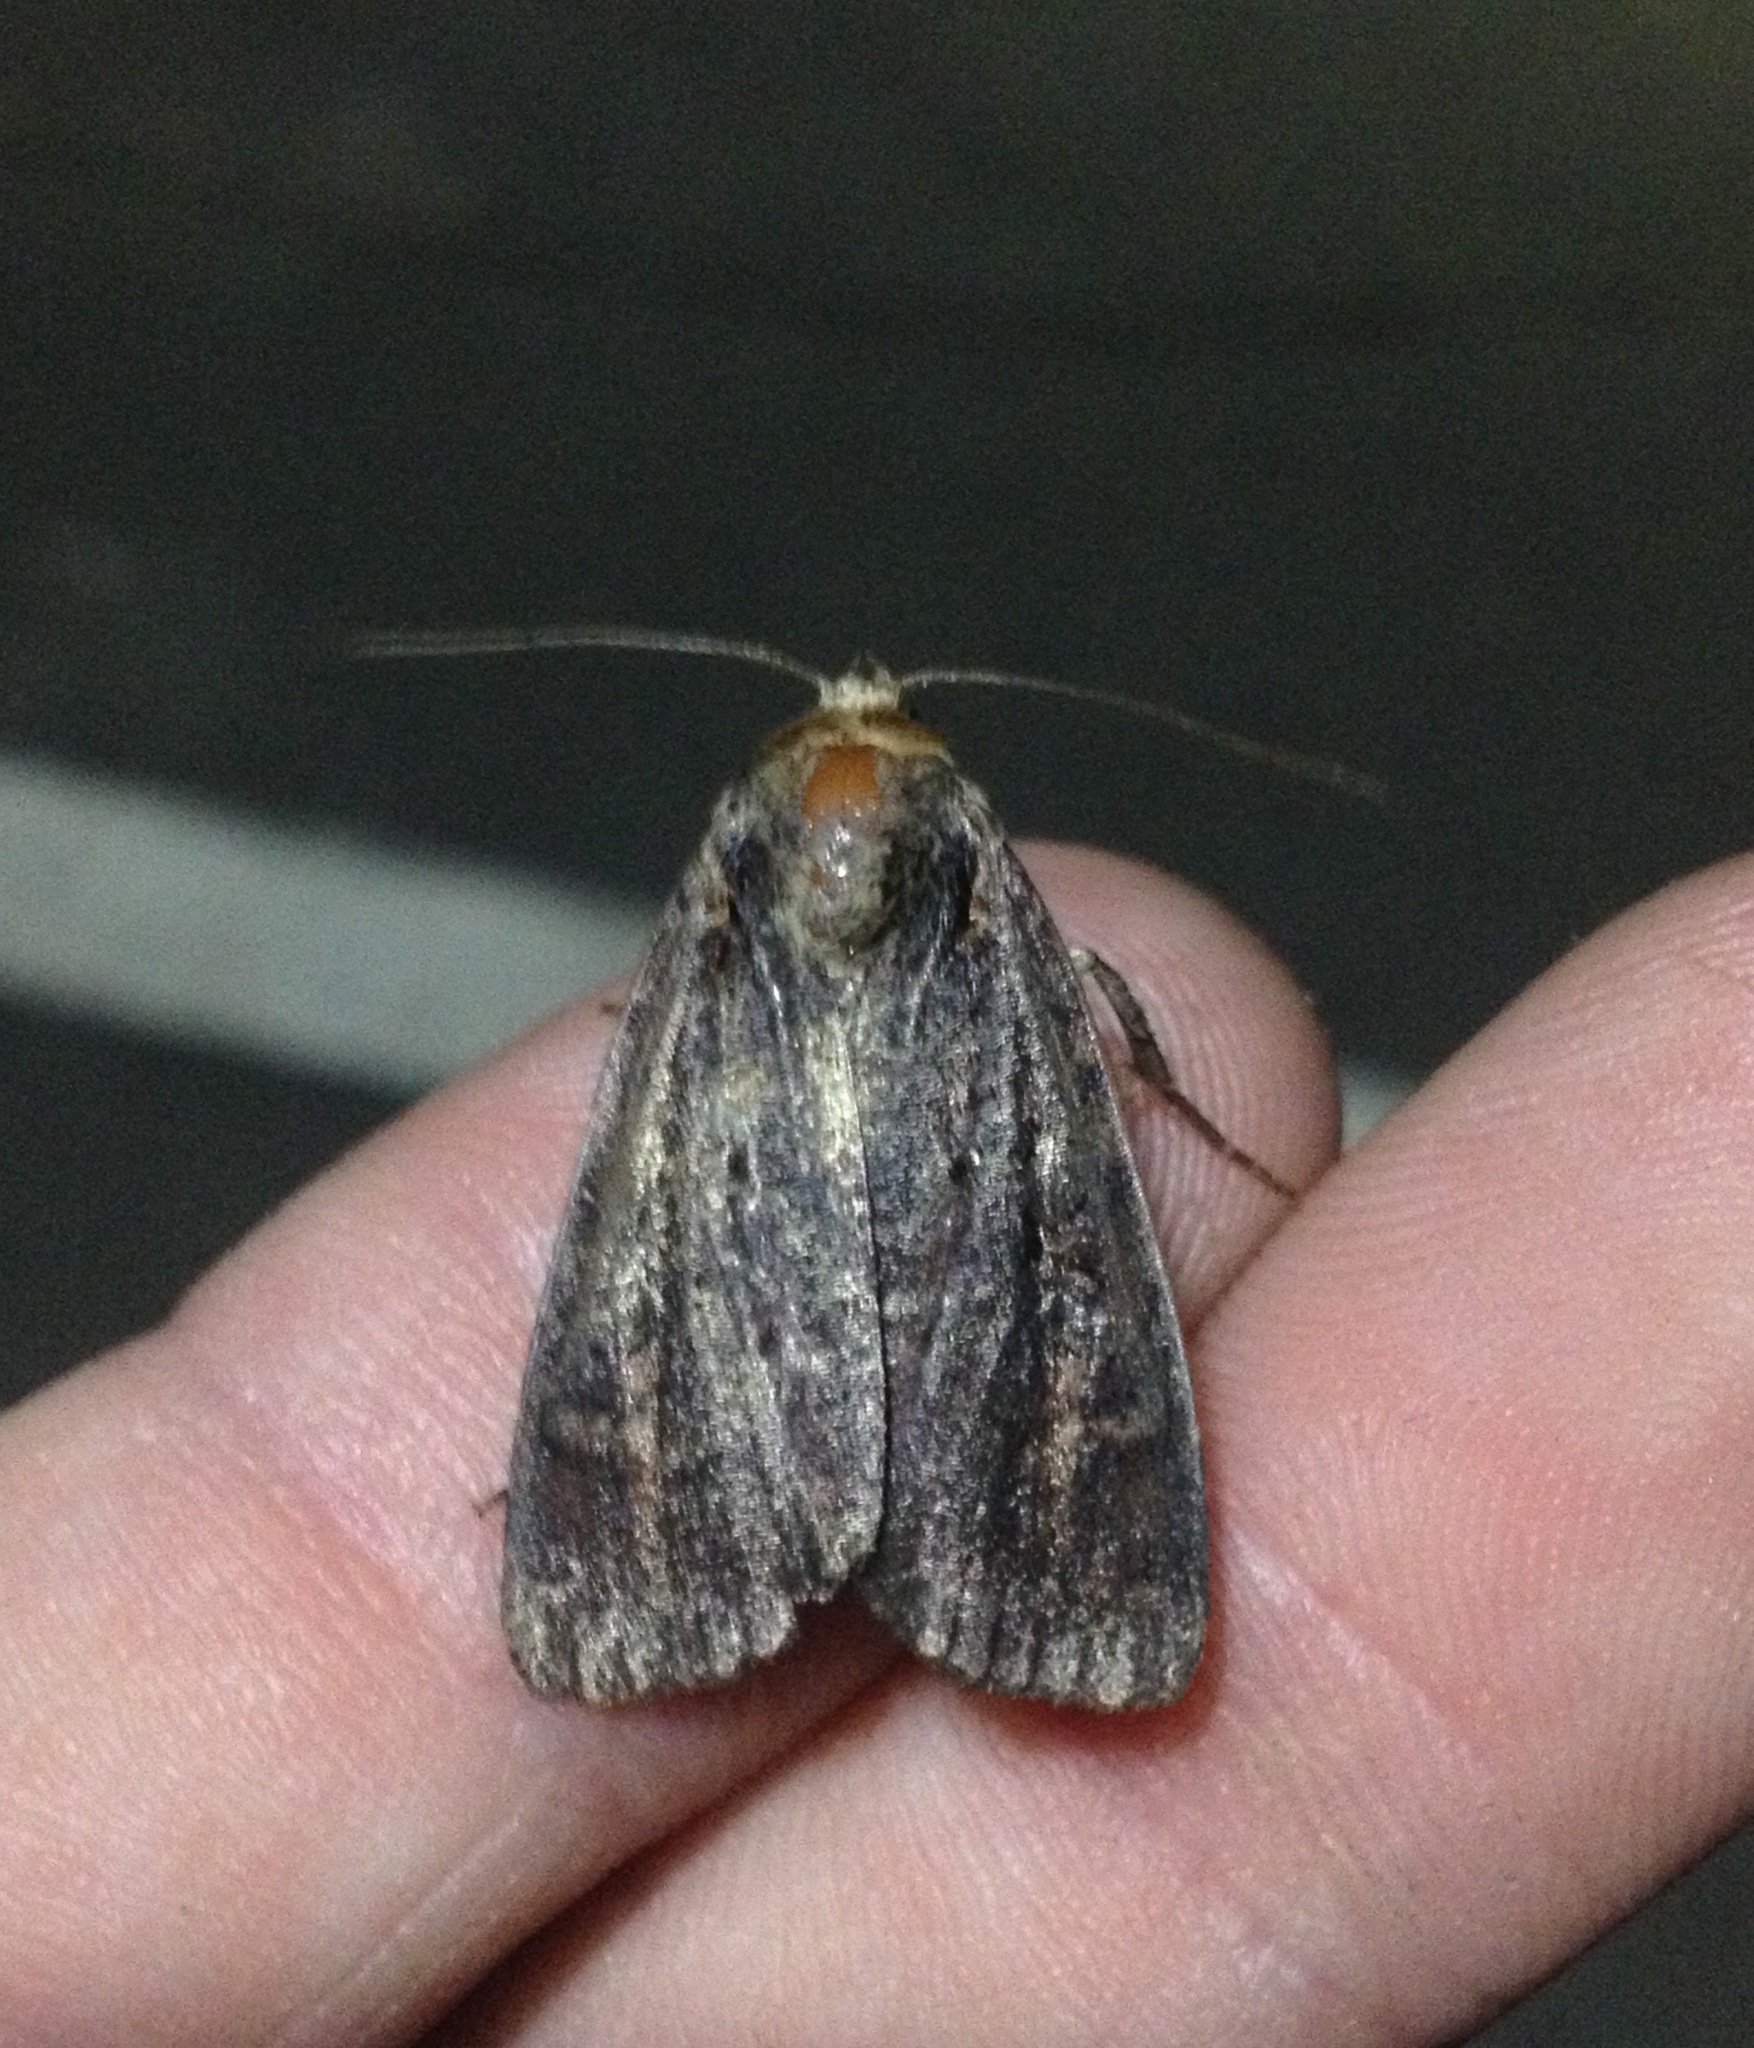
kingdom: Animalia
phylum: Arthropoda
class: Insecta
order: Lepidoptera
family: Noctuidae
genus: Eugraphe
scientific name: Eugraphe sigma
